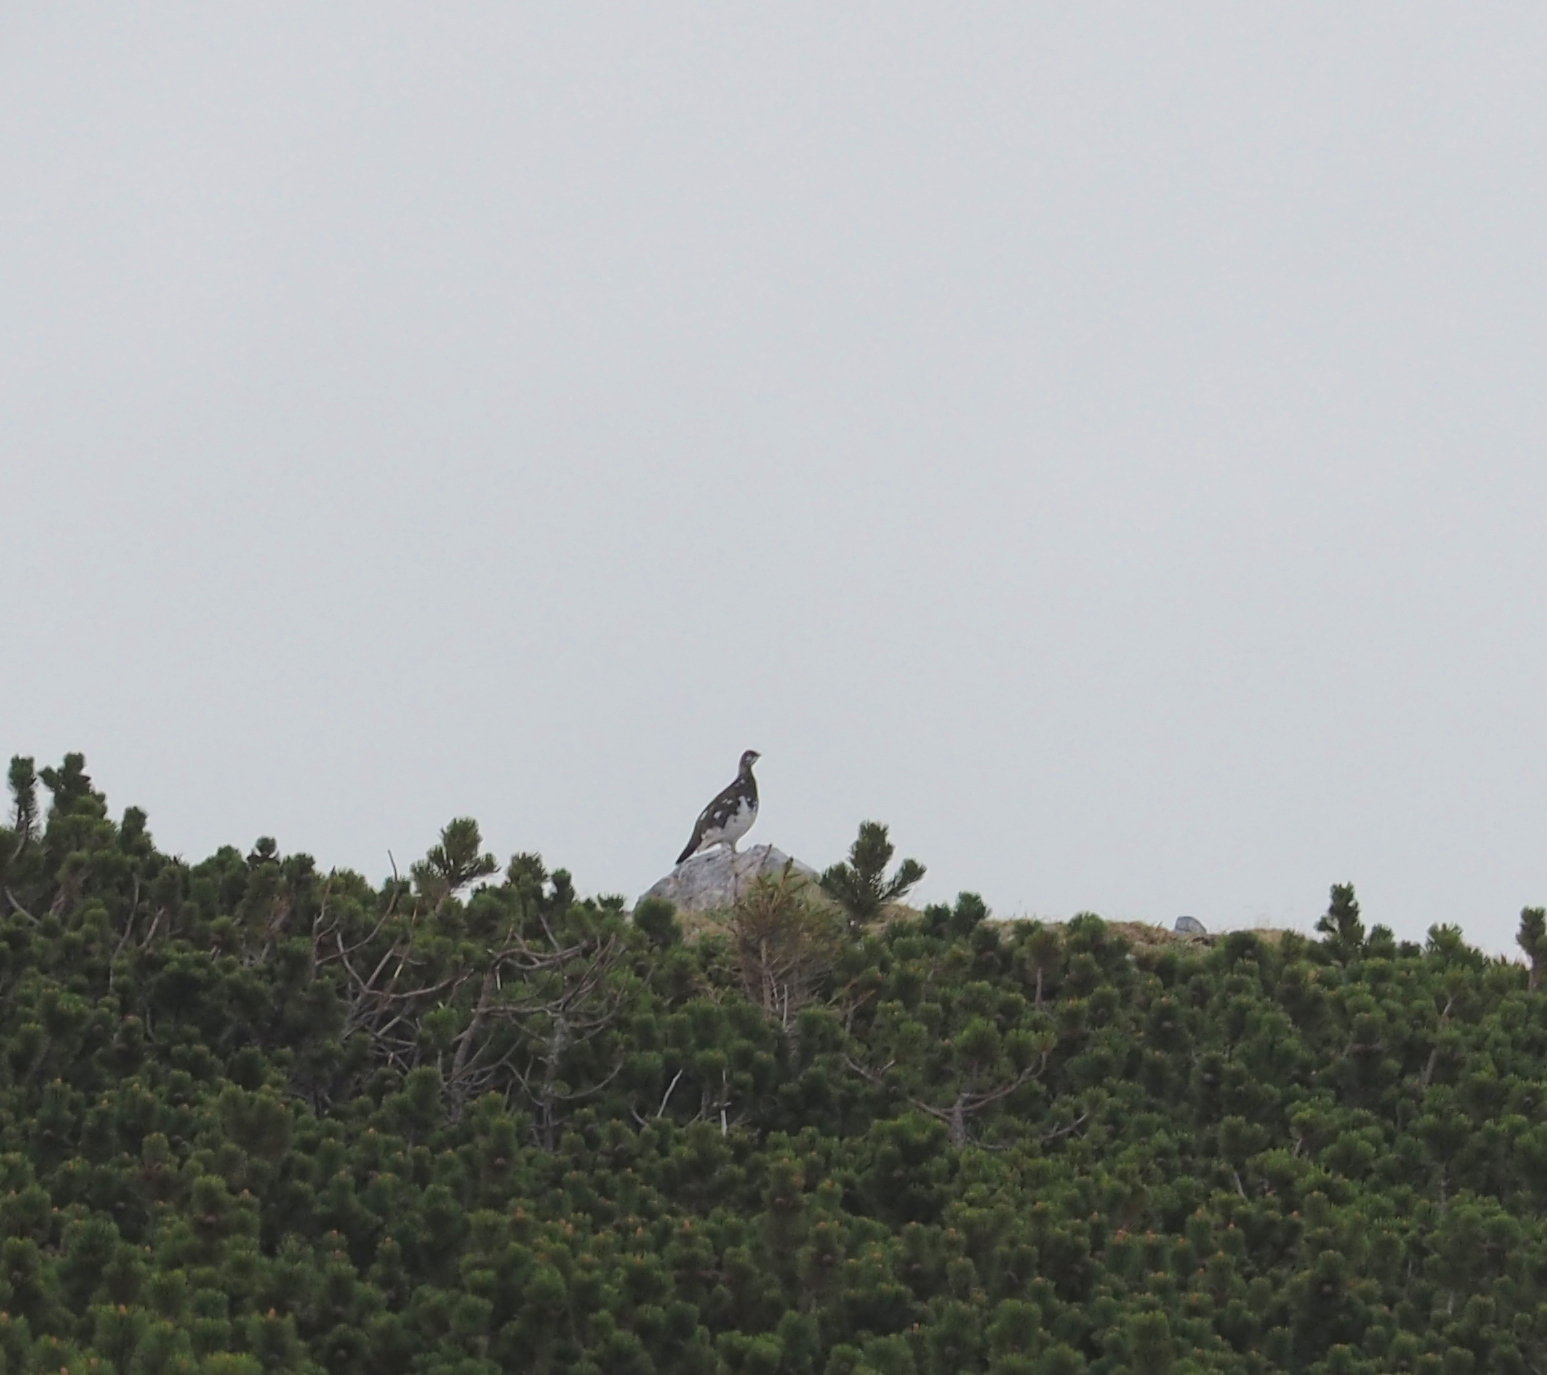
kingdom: Animalia
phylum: Chordata
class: Aves
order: Galliformes
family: Phasianidae
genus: Lagopus
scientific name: Lagopus muta
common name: Rock ptarmigan
